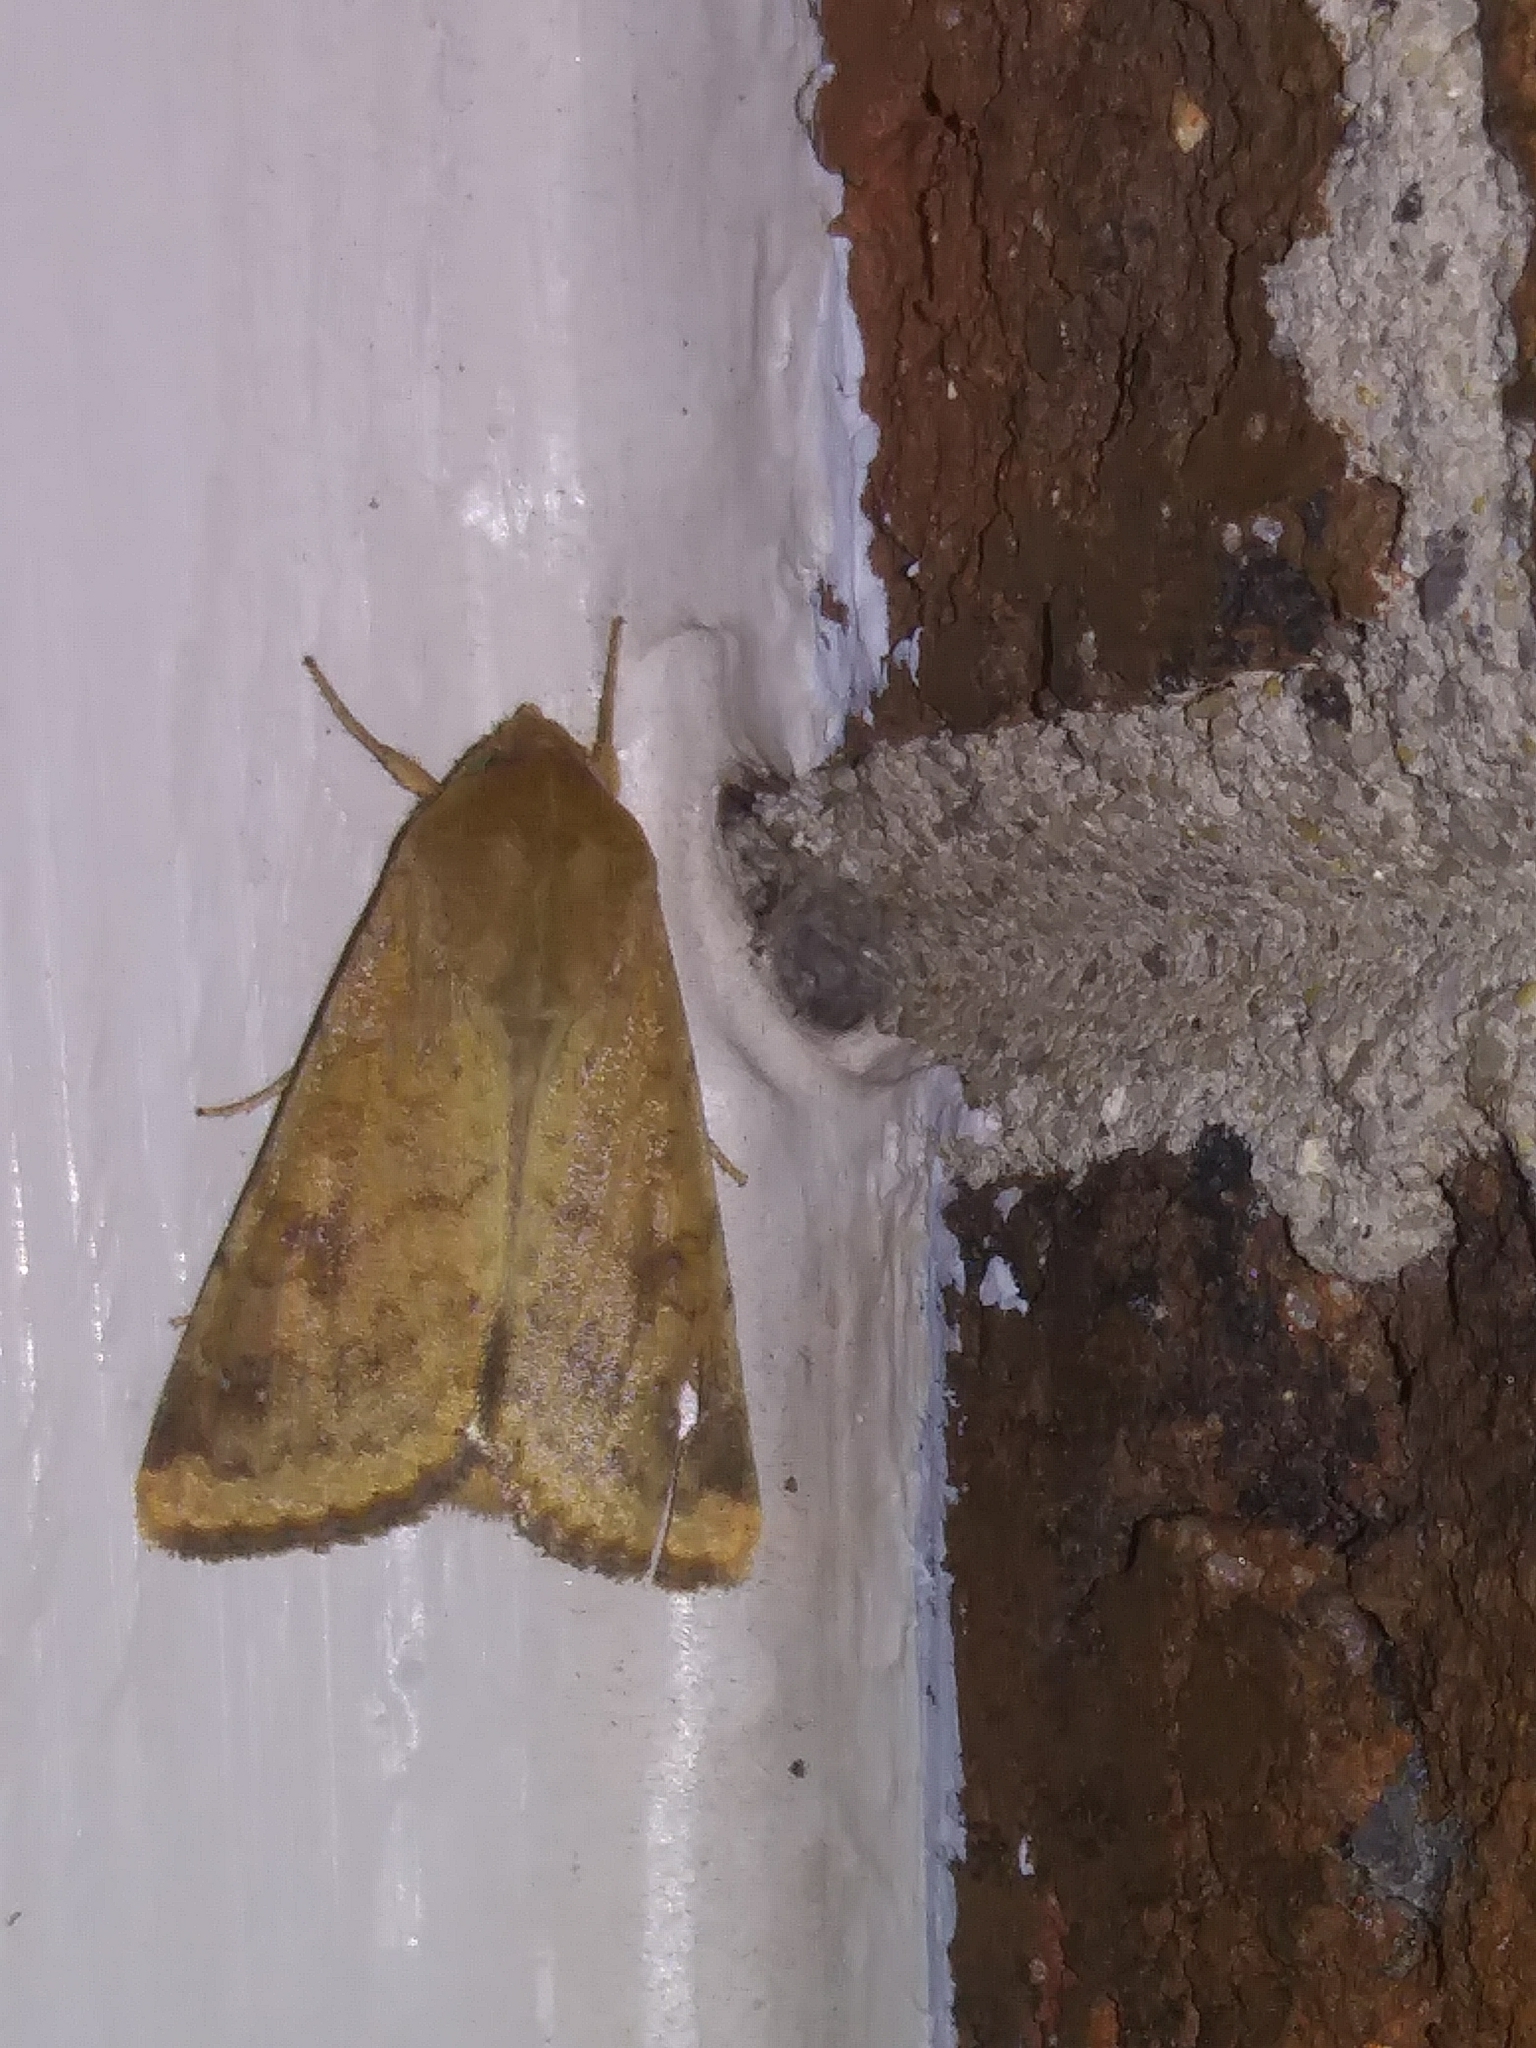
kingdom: Animalia
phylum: Arthropoda
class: Insecta
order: Lepidoptera
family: Noctuidae
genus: Helicoverpa
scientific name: Helicoverpa zea
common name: Bollworm
